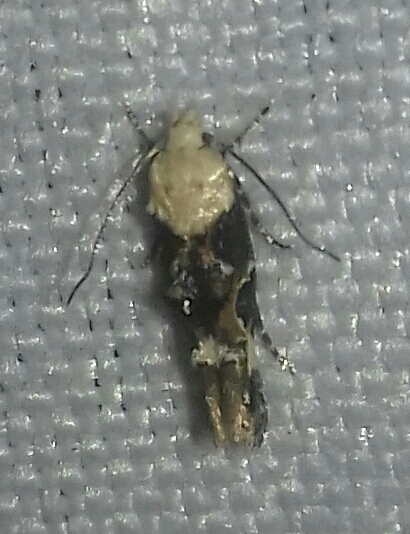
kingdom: Animalia
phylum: Arthropoda
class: Insecta
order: Lepidoptera
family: Momphidae
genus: Mompha
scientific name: Mompha propinquella
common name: Marbled cosmet
